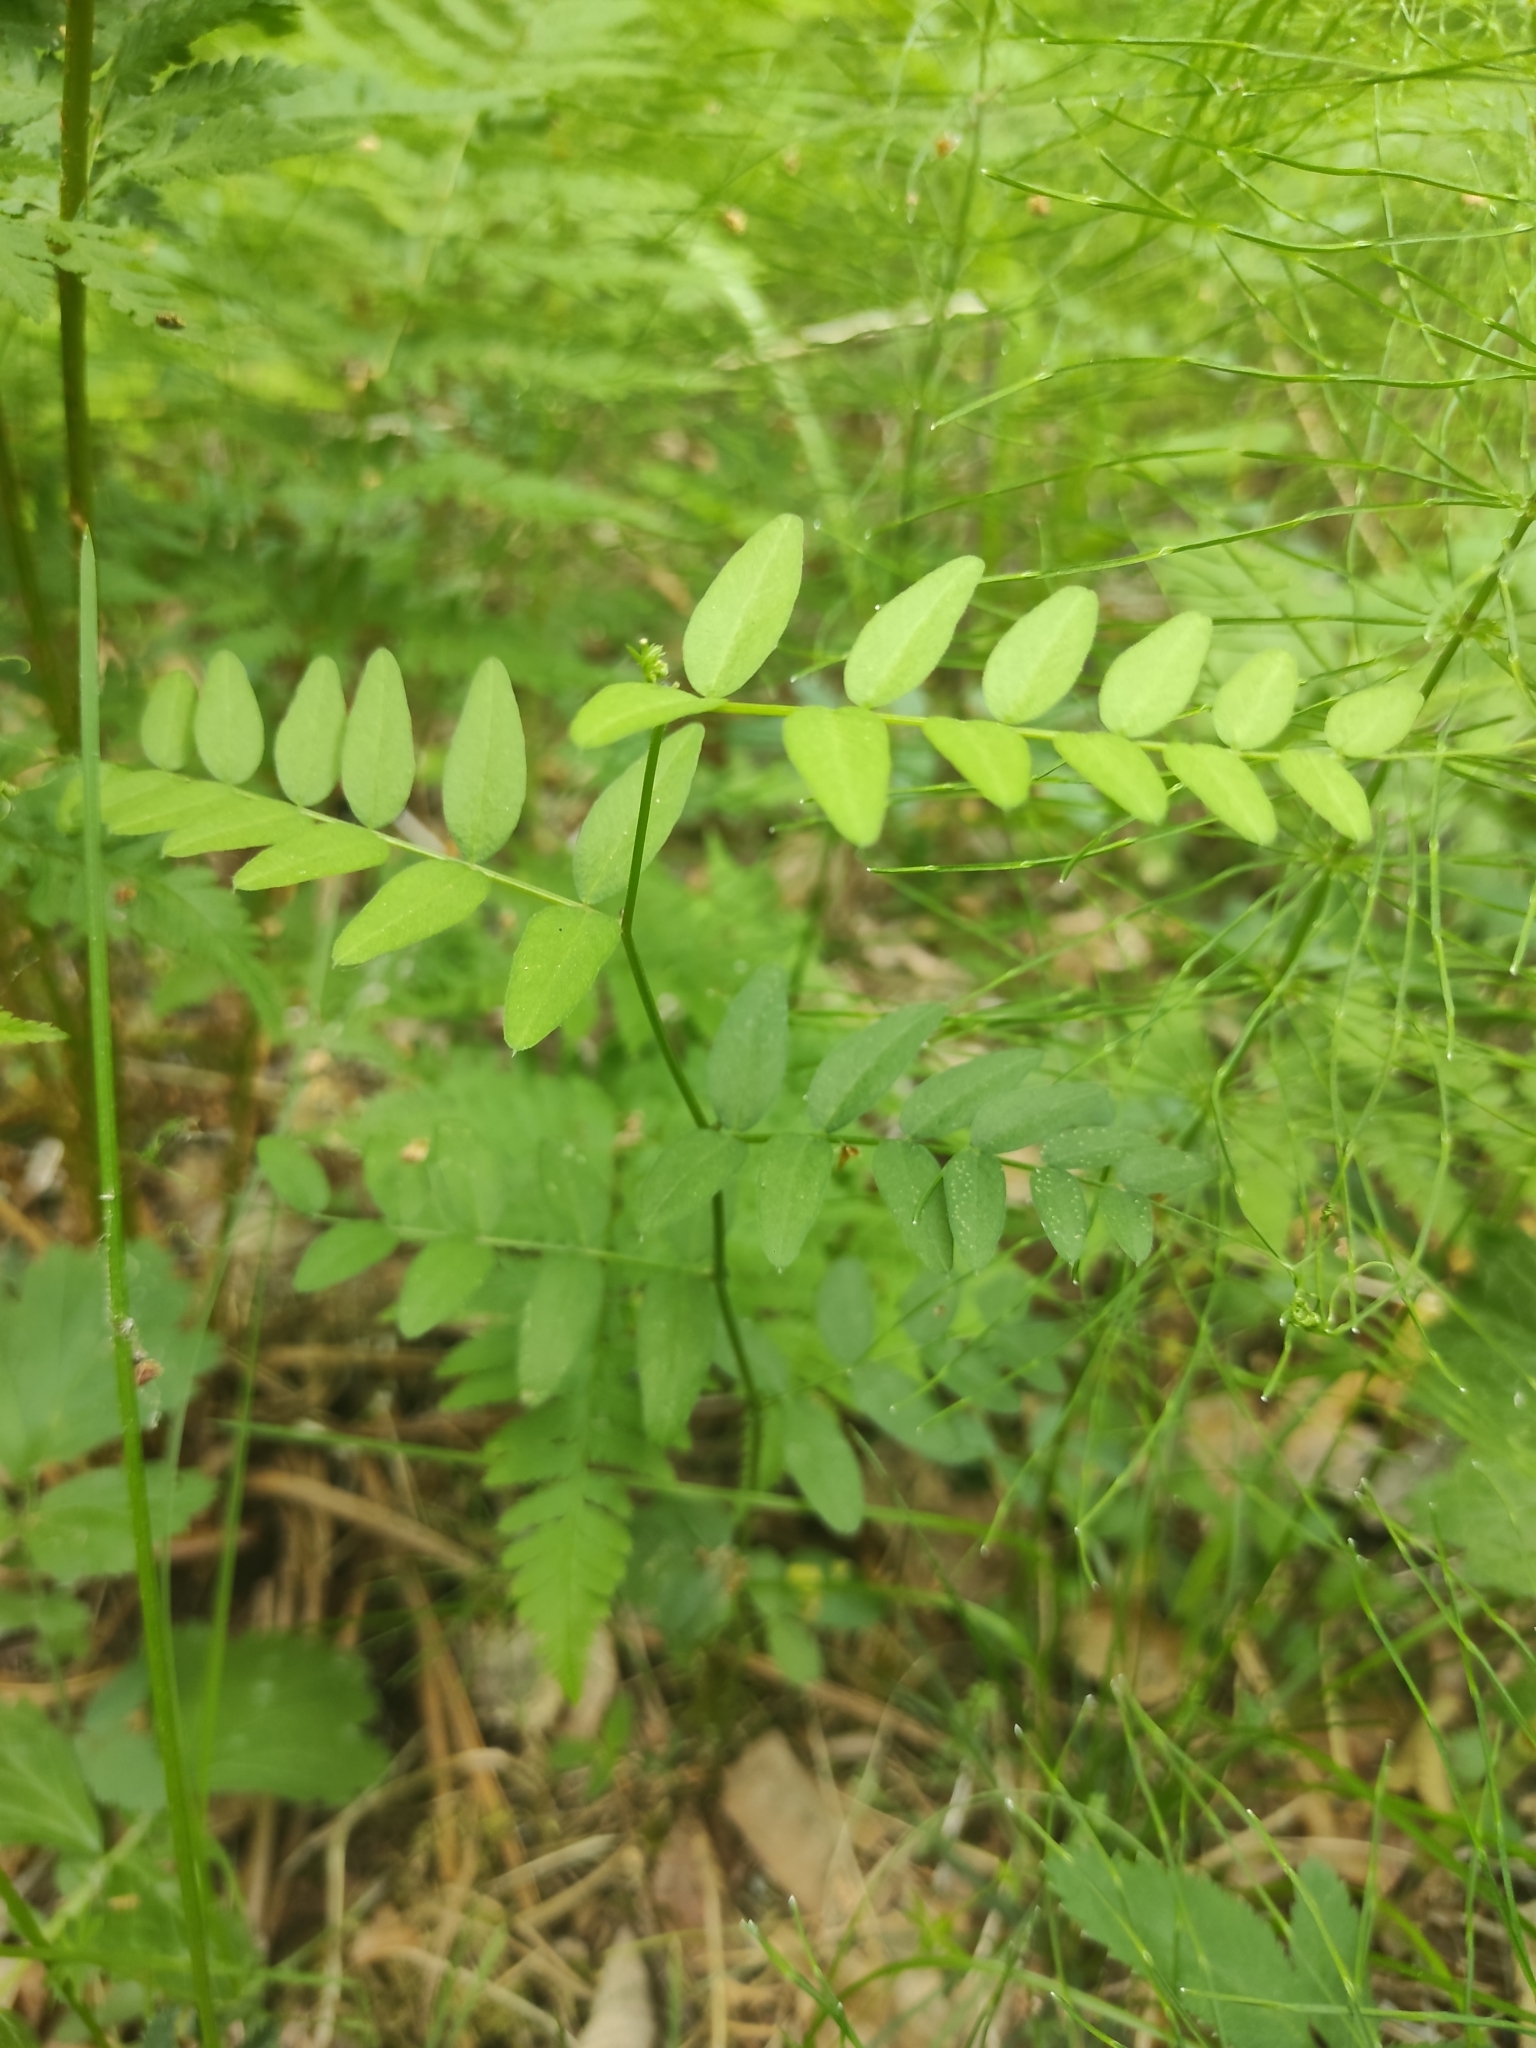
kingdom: Plantae
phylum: Tracheophyta
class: Magnoliopsida
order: Fabales
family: Fabaceae
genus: Vicia
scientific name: Vicia sepium
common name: Bush vetch
